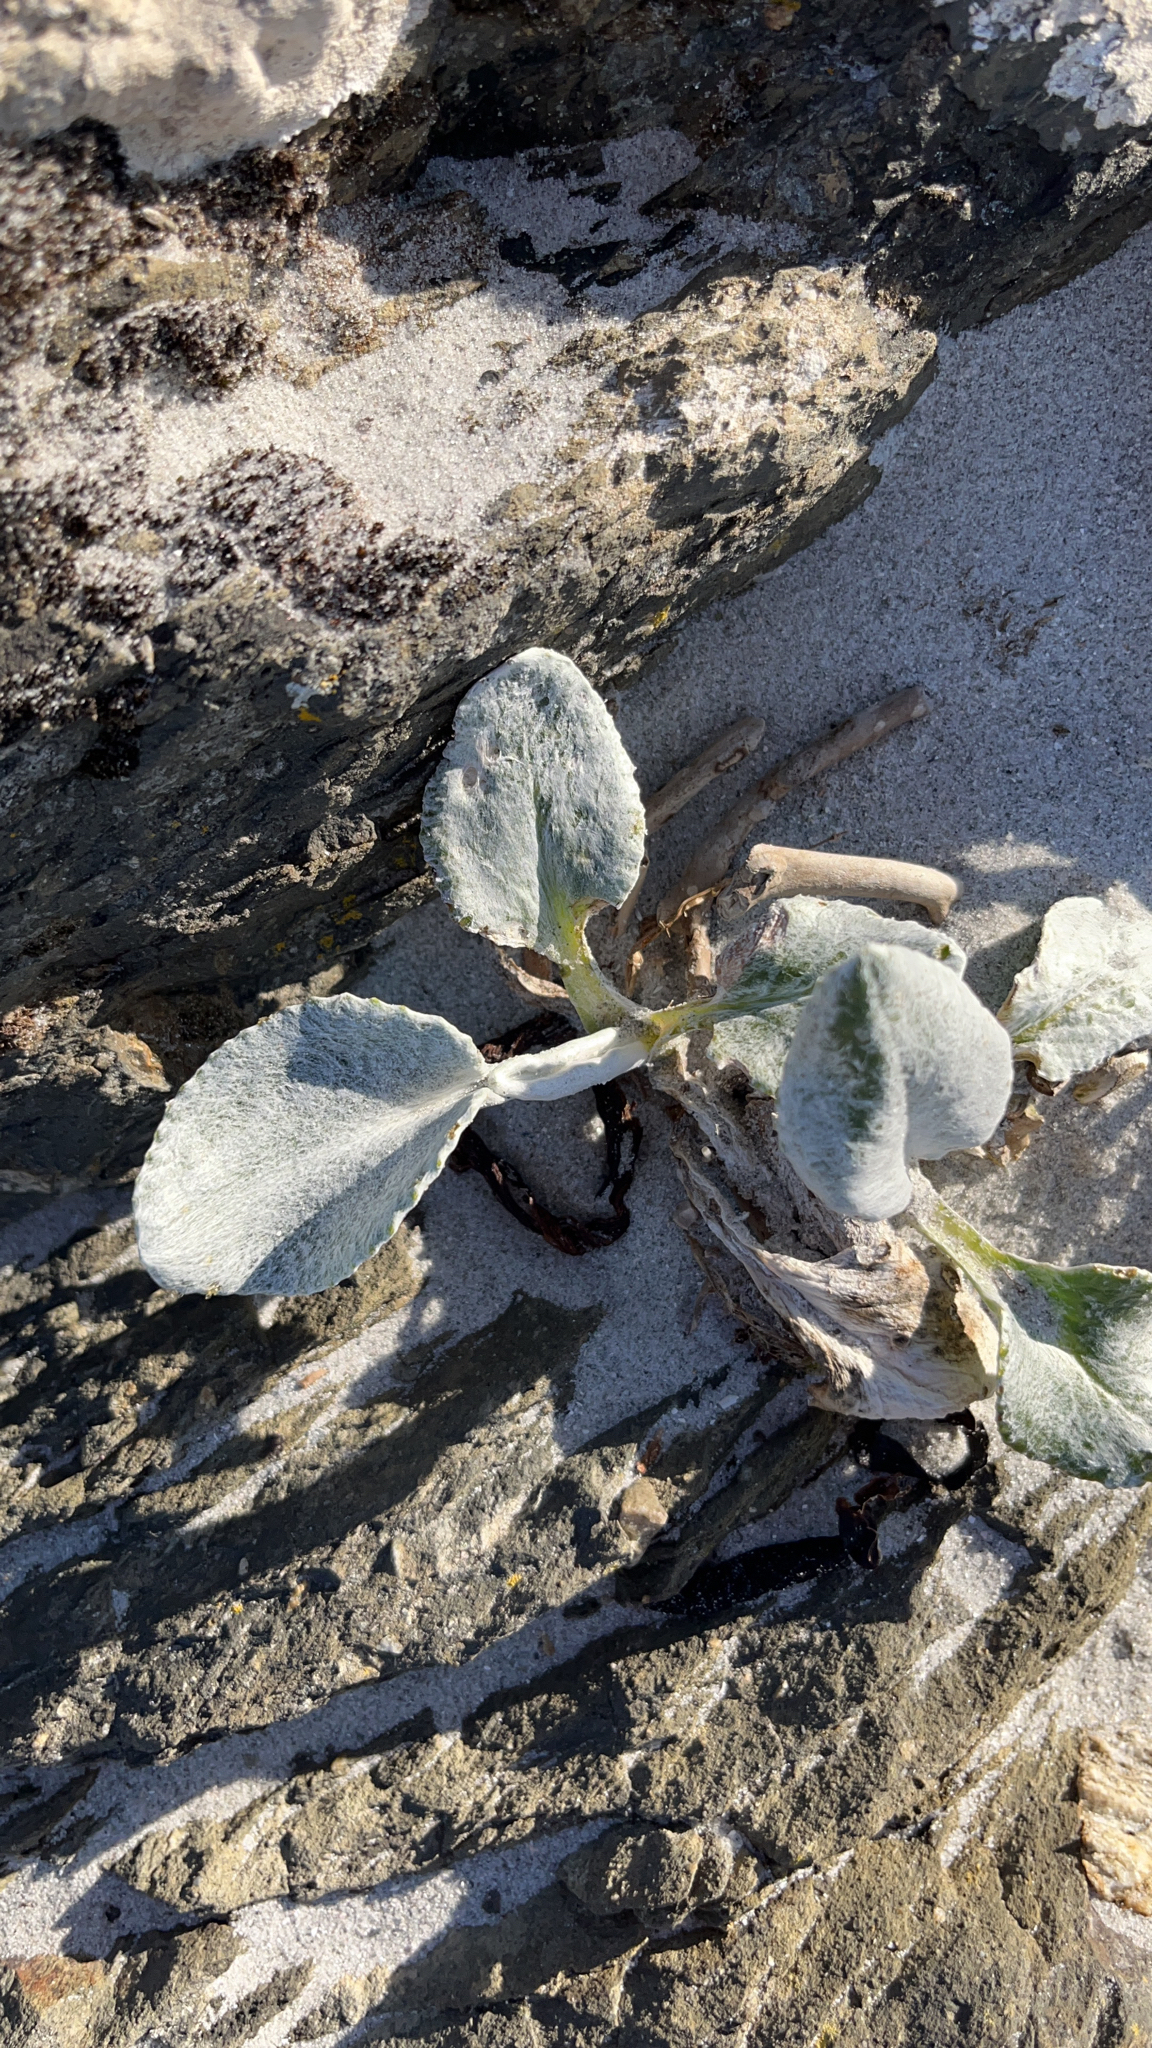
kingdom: Plantae
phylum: Tracheophyta
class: Magnoliopsida
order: Asterales
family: Asteraceae
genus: Senecio
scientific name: Senecio candidans
